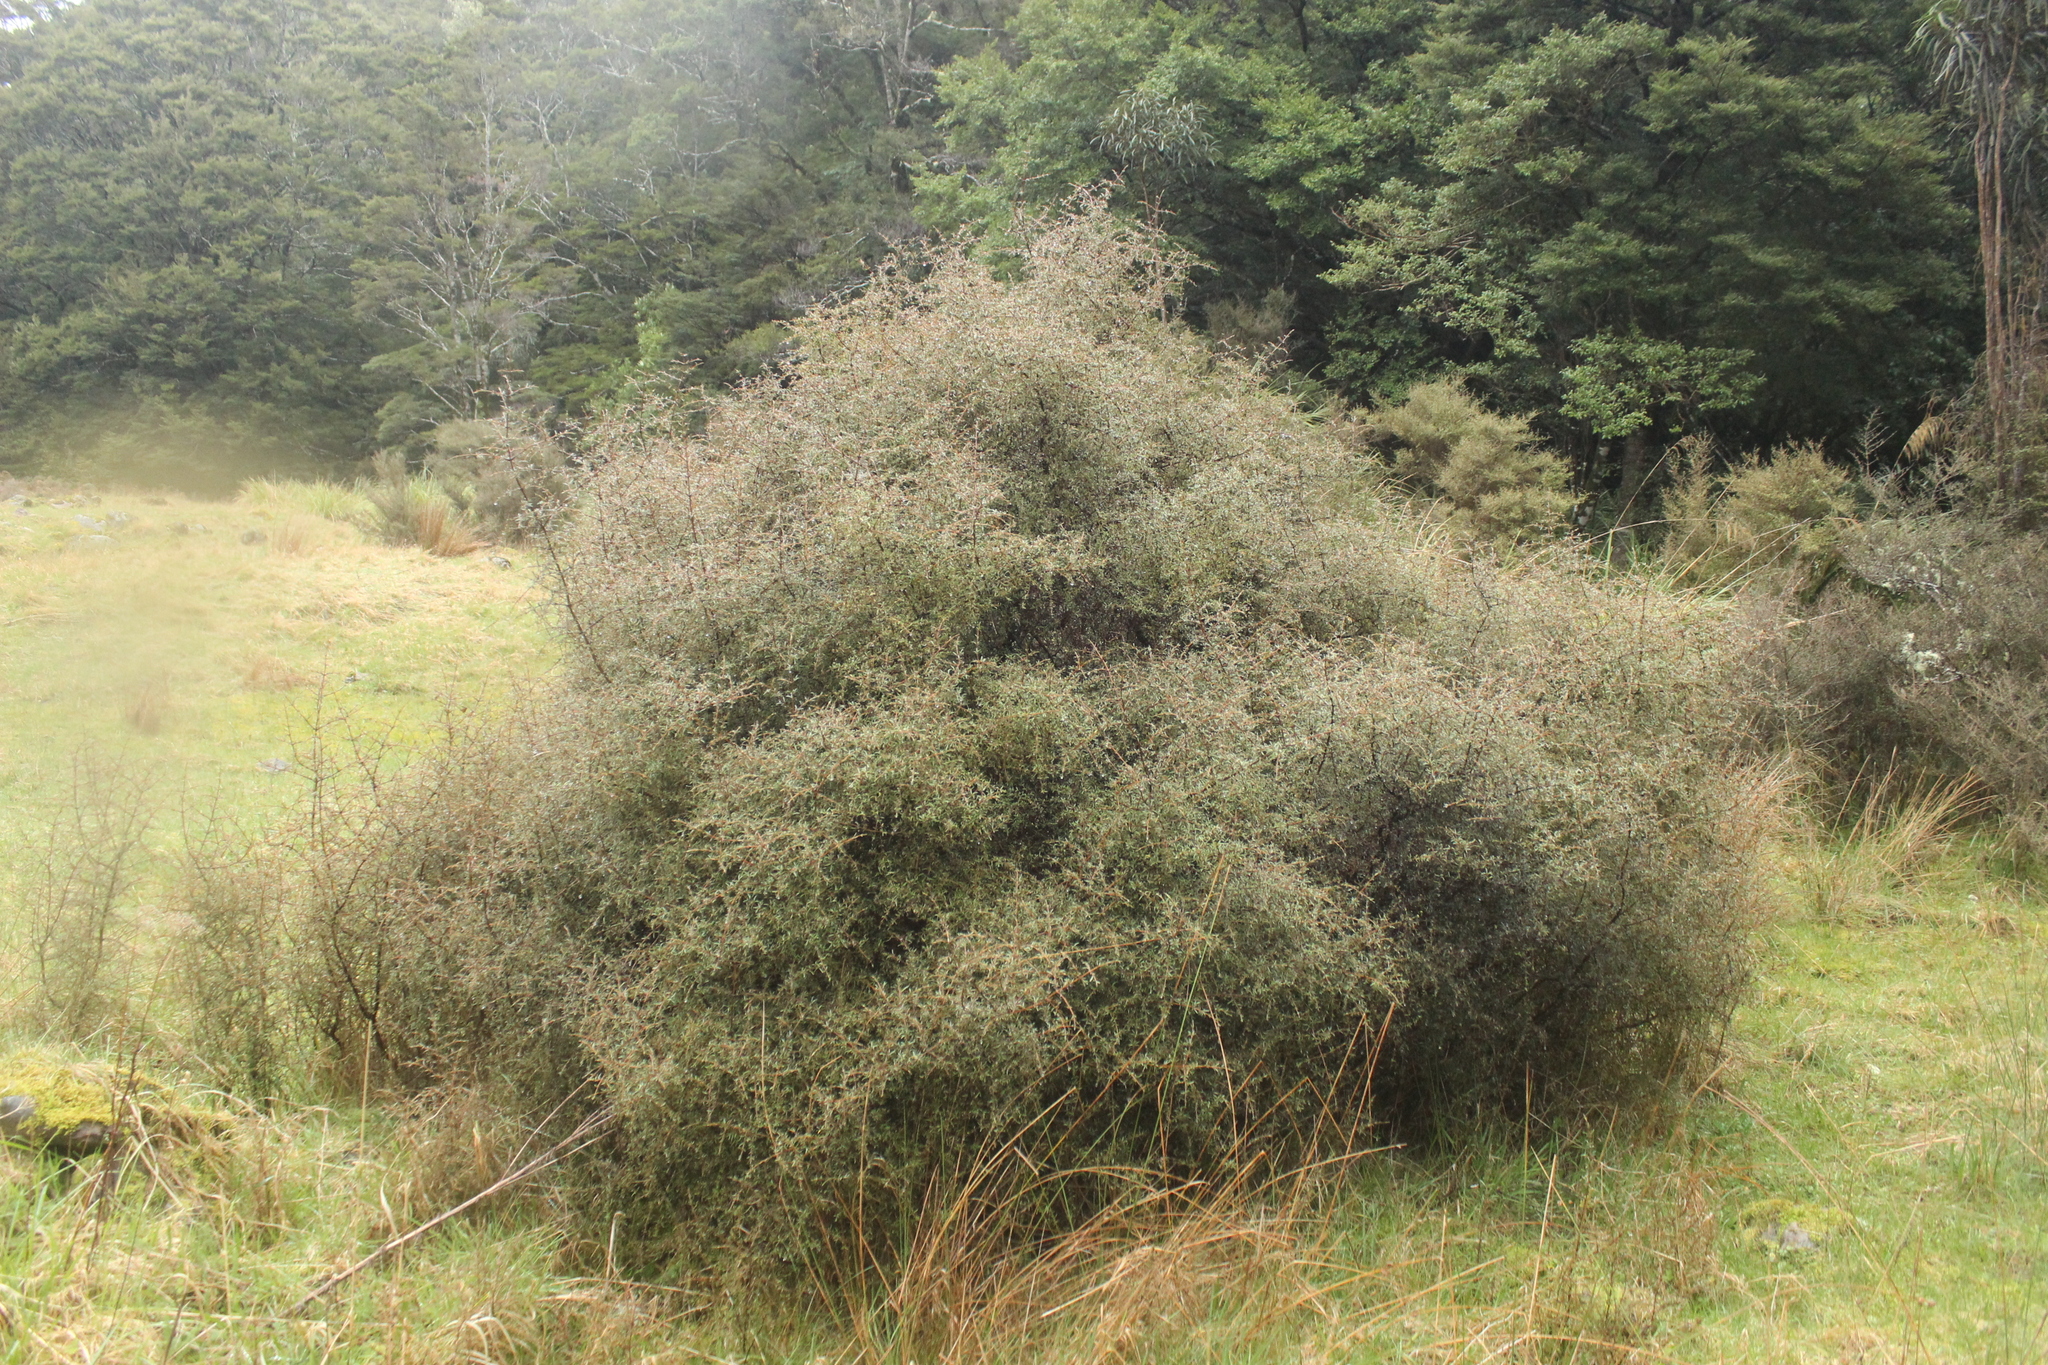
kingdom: Plantae
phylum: Tracheophyta
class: Magnoliopsida
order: Gentianales
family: Rubiaceae
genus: Coprosma
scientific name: Coprosma rugosa
